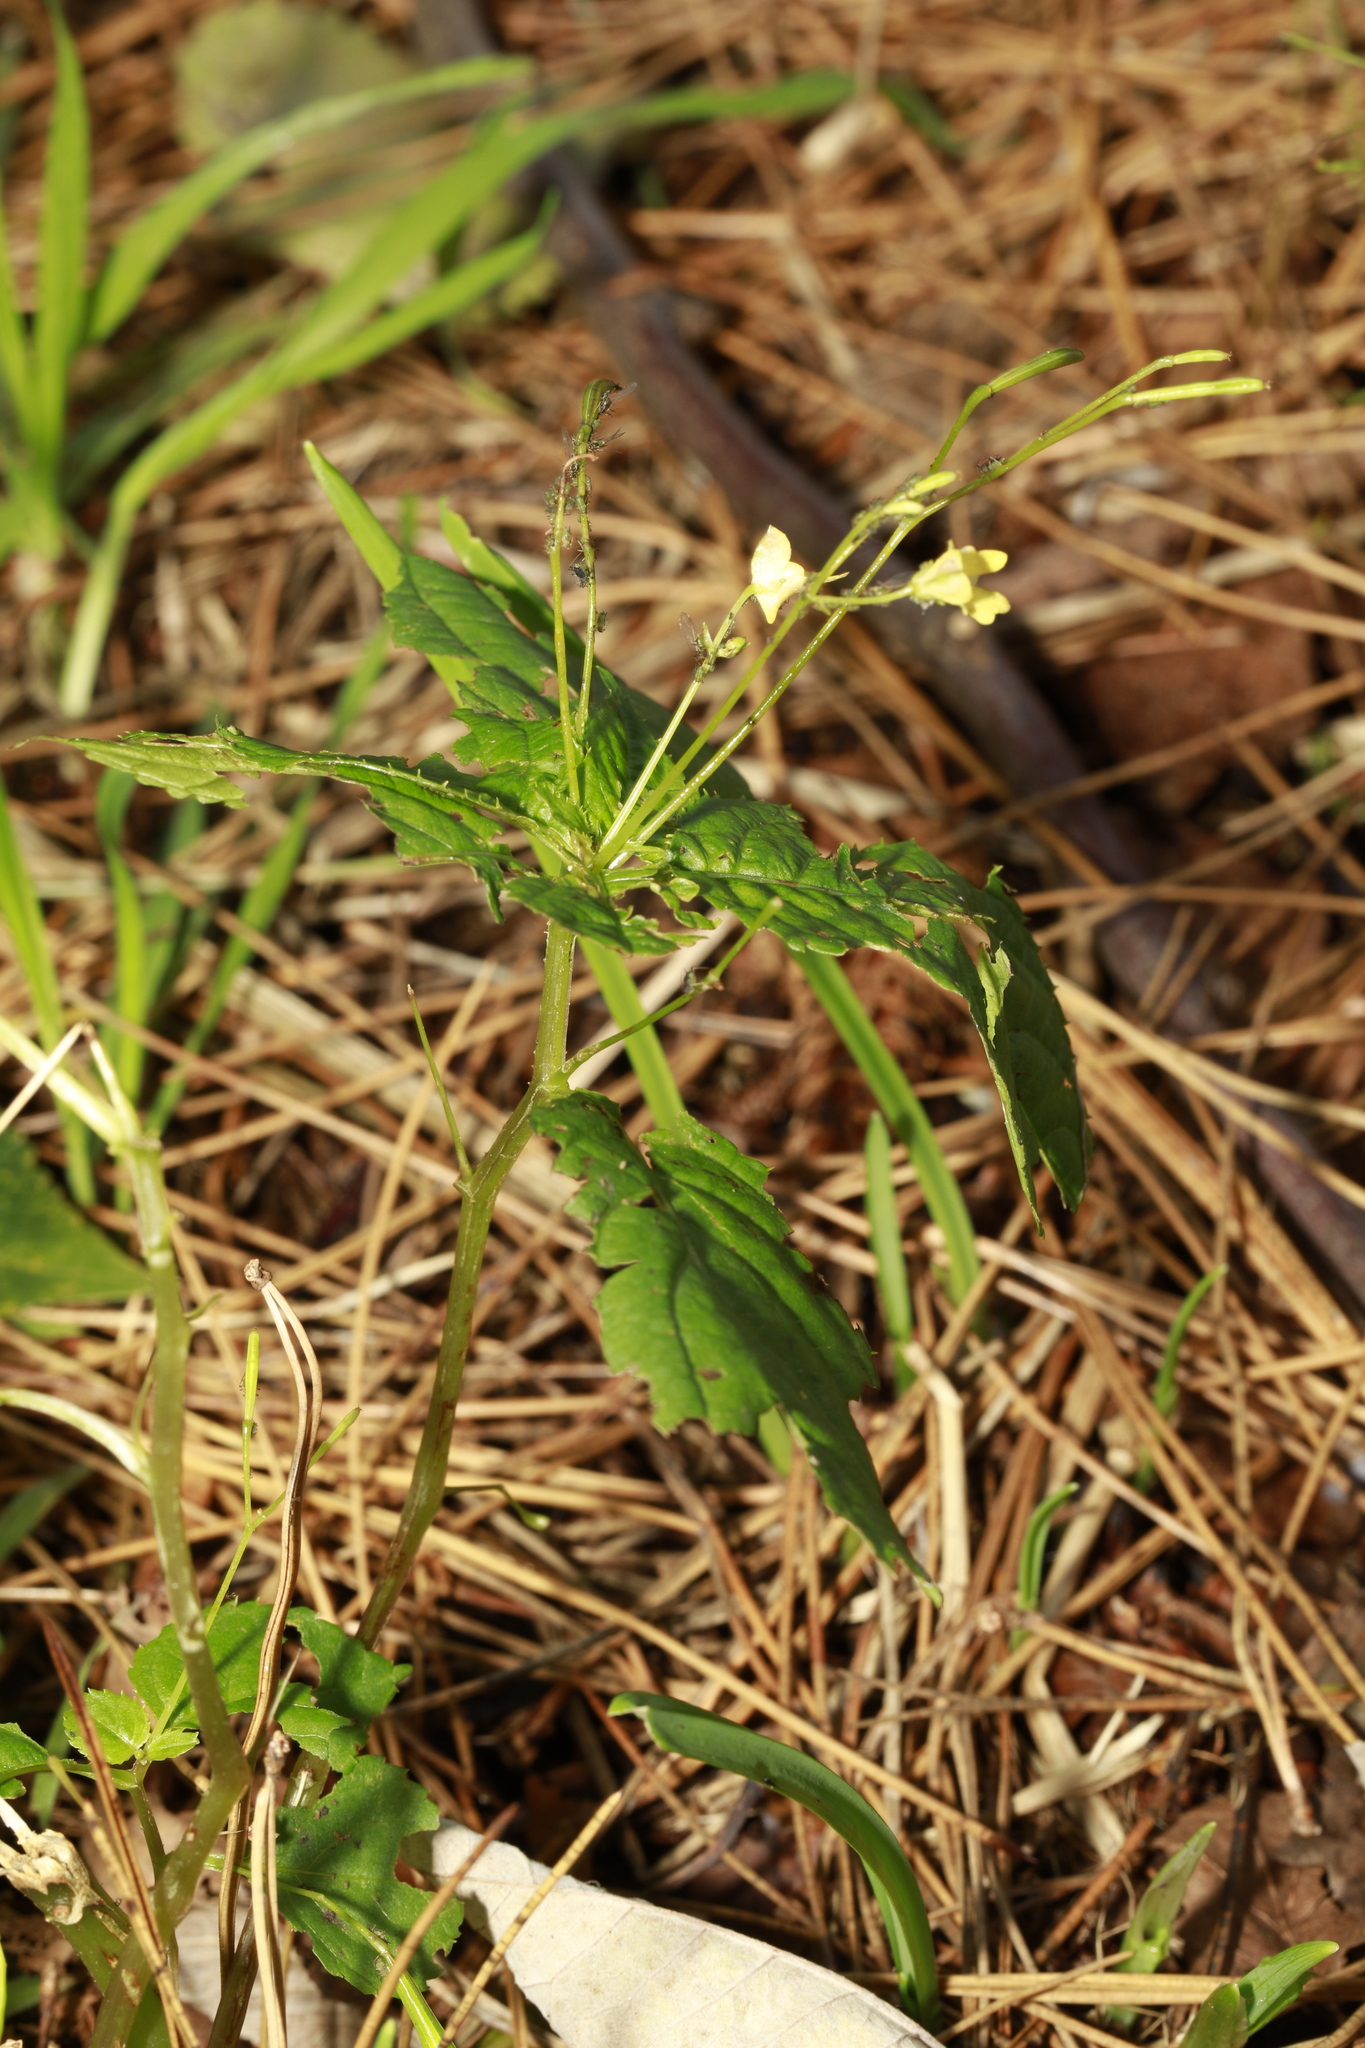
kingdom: Plantae
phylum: Tracheophyta
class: Magnoliopsida
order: Ericales
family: Balsaminaceae
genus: Impatiens
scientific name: Impatiens parviflora
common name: Small balsam
